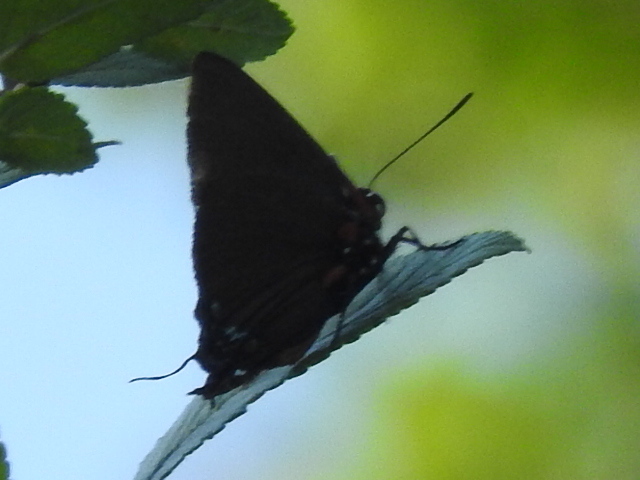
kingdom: Animalia
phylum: Arthropoda
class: Insecta
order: Lepidoptera
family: Lycaenidae
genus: Atlides
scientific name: Atlides halesus
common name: Great purple hairstreak
